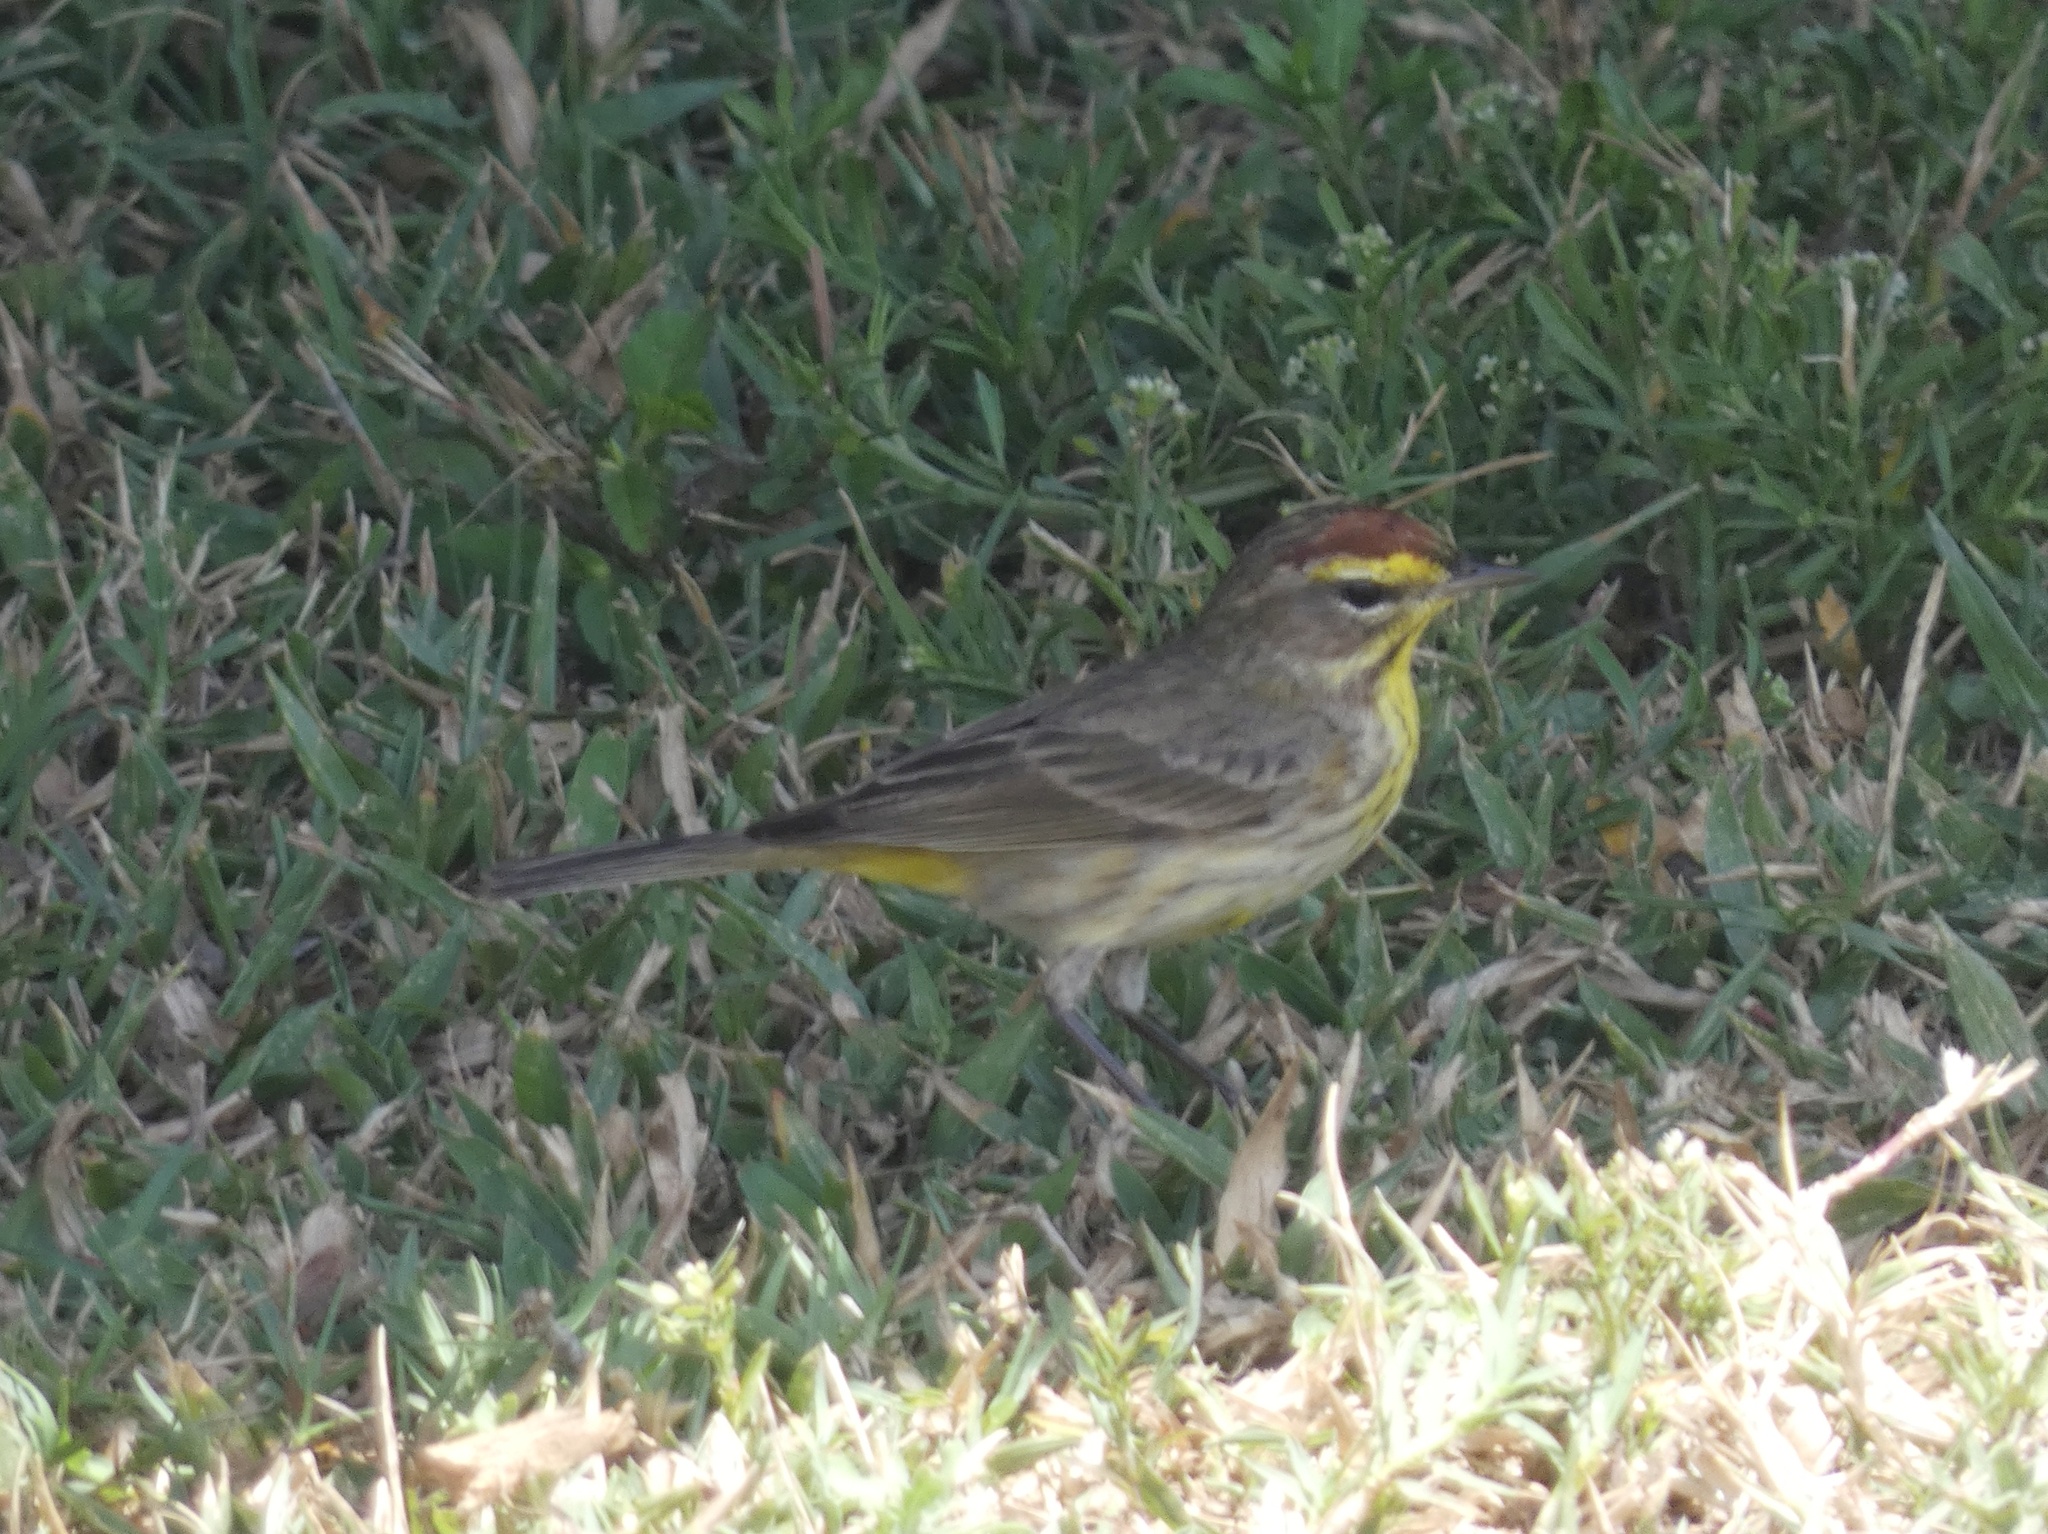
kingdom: Animalia
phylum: Chordata
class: Aves
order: Passeriformes
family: Parulidae
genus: Setophaga
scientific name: Setophaga palmarum
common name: Palm warbler
